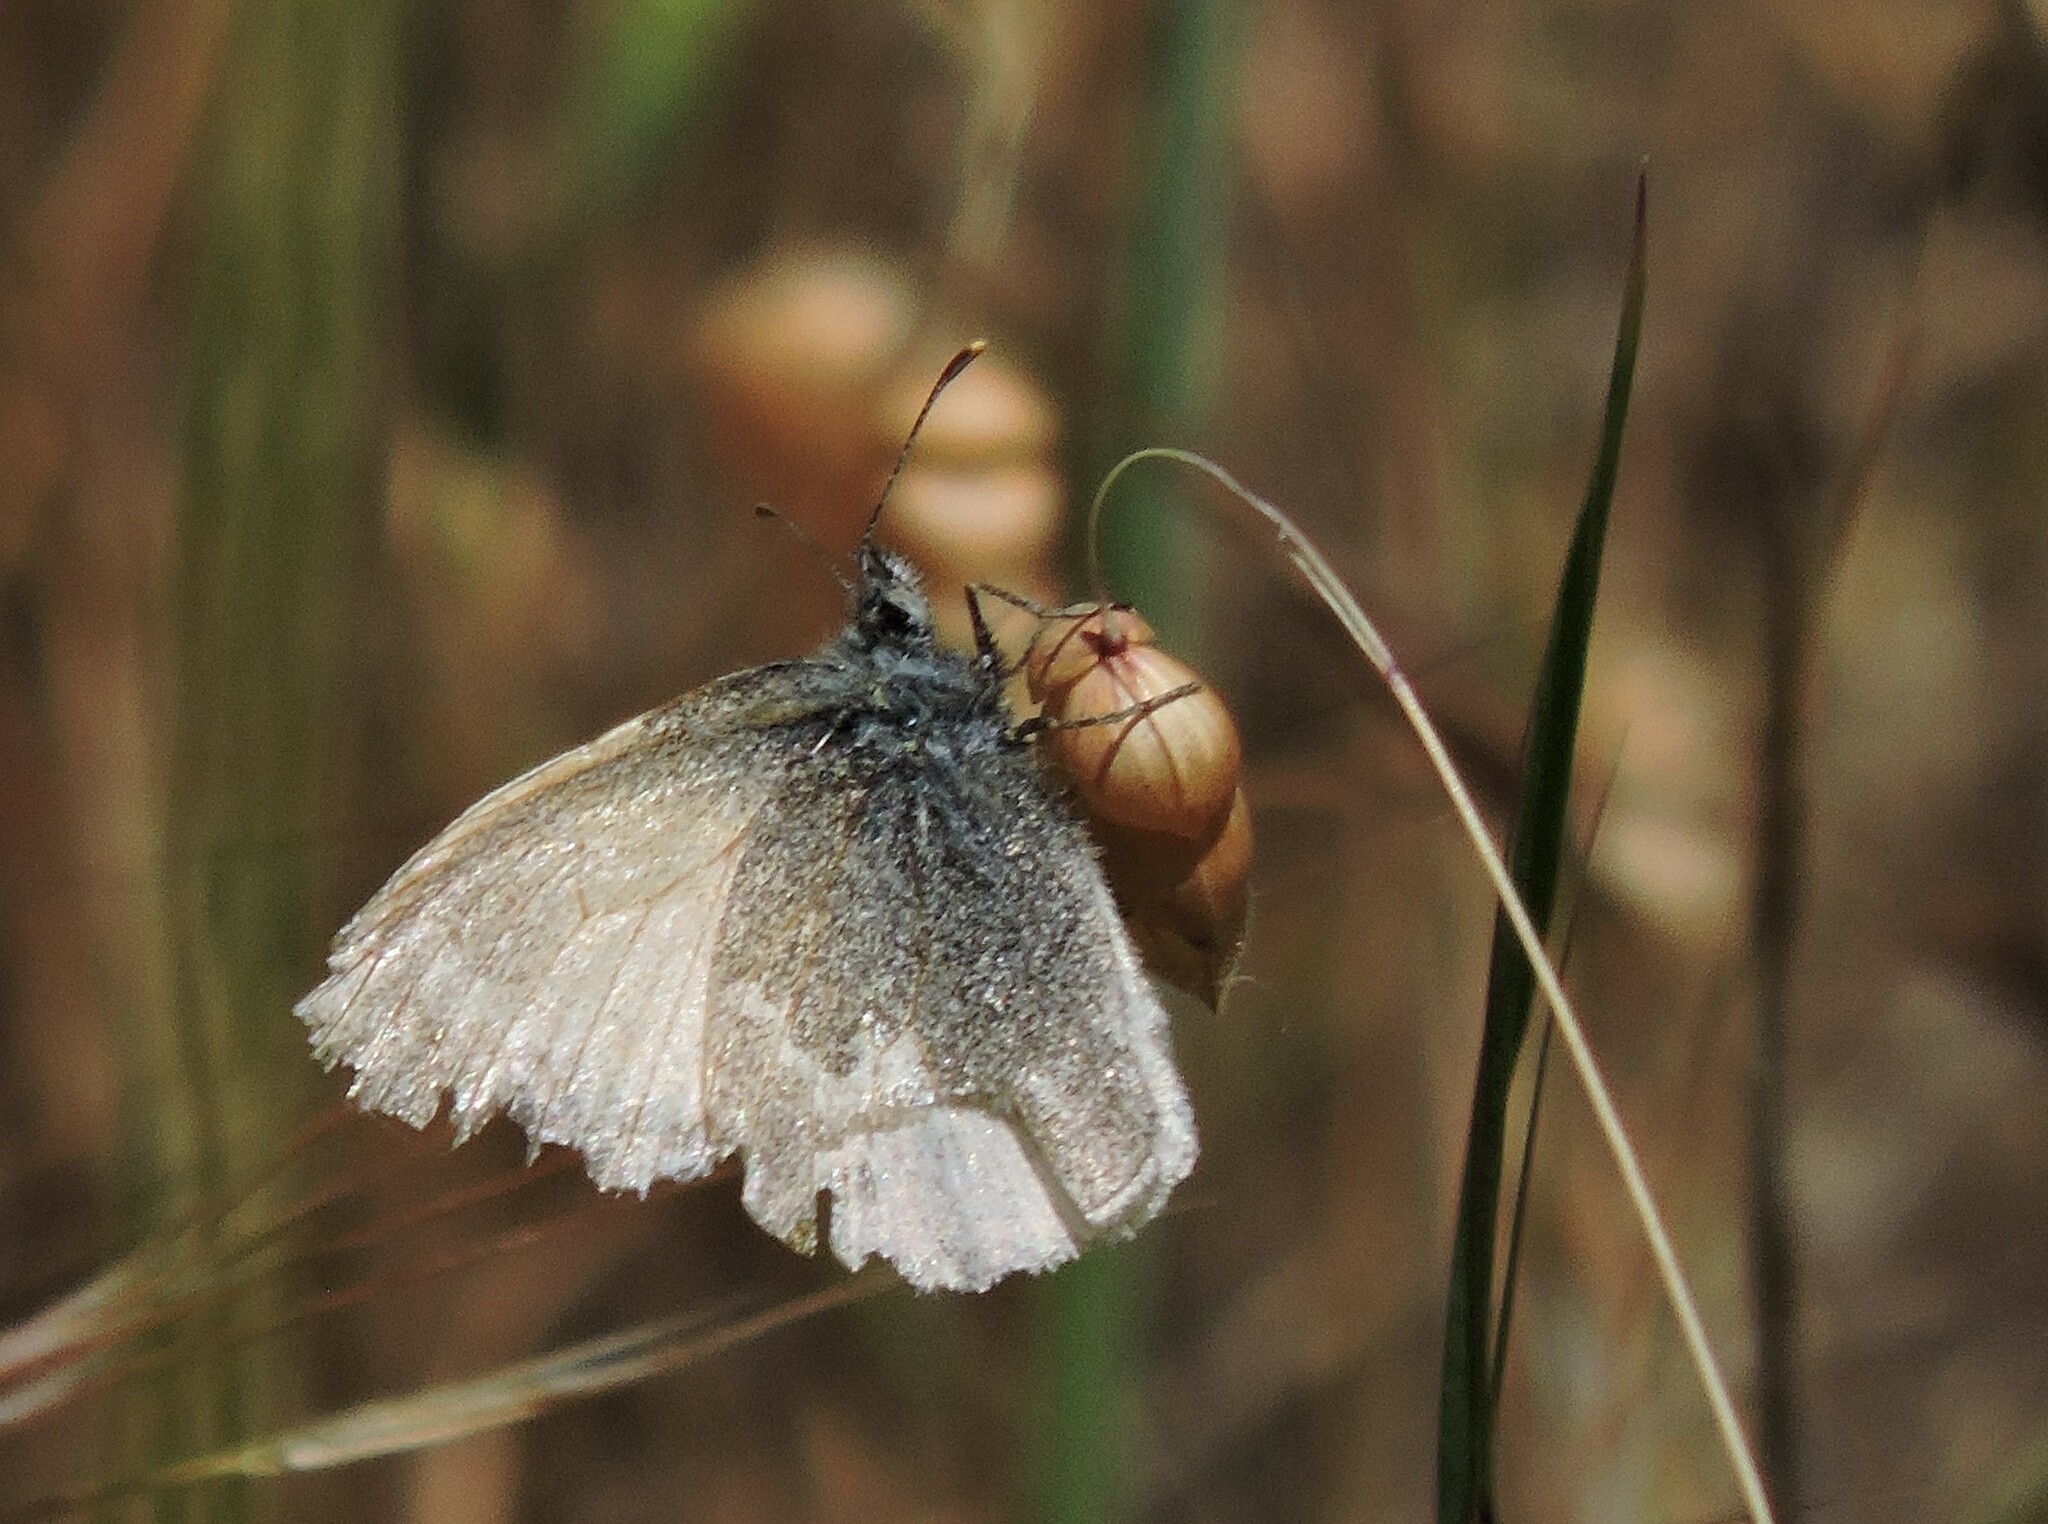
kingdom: Animalia
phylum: Arthropoda
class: Insecta
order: Lepidoptera
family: Nymphalidae
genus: Coenonympha
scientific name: Coenonympha california
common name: Common ringlet
